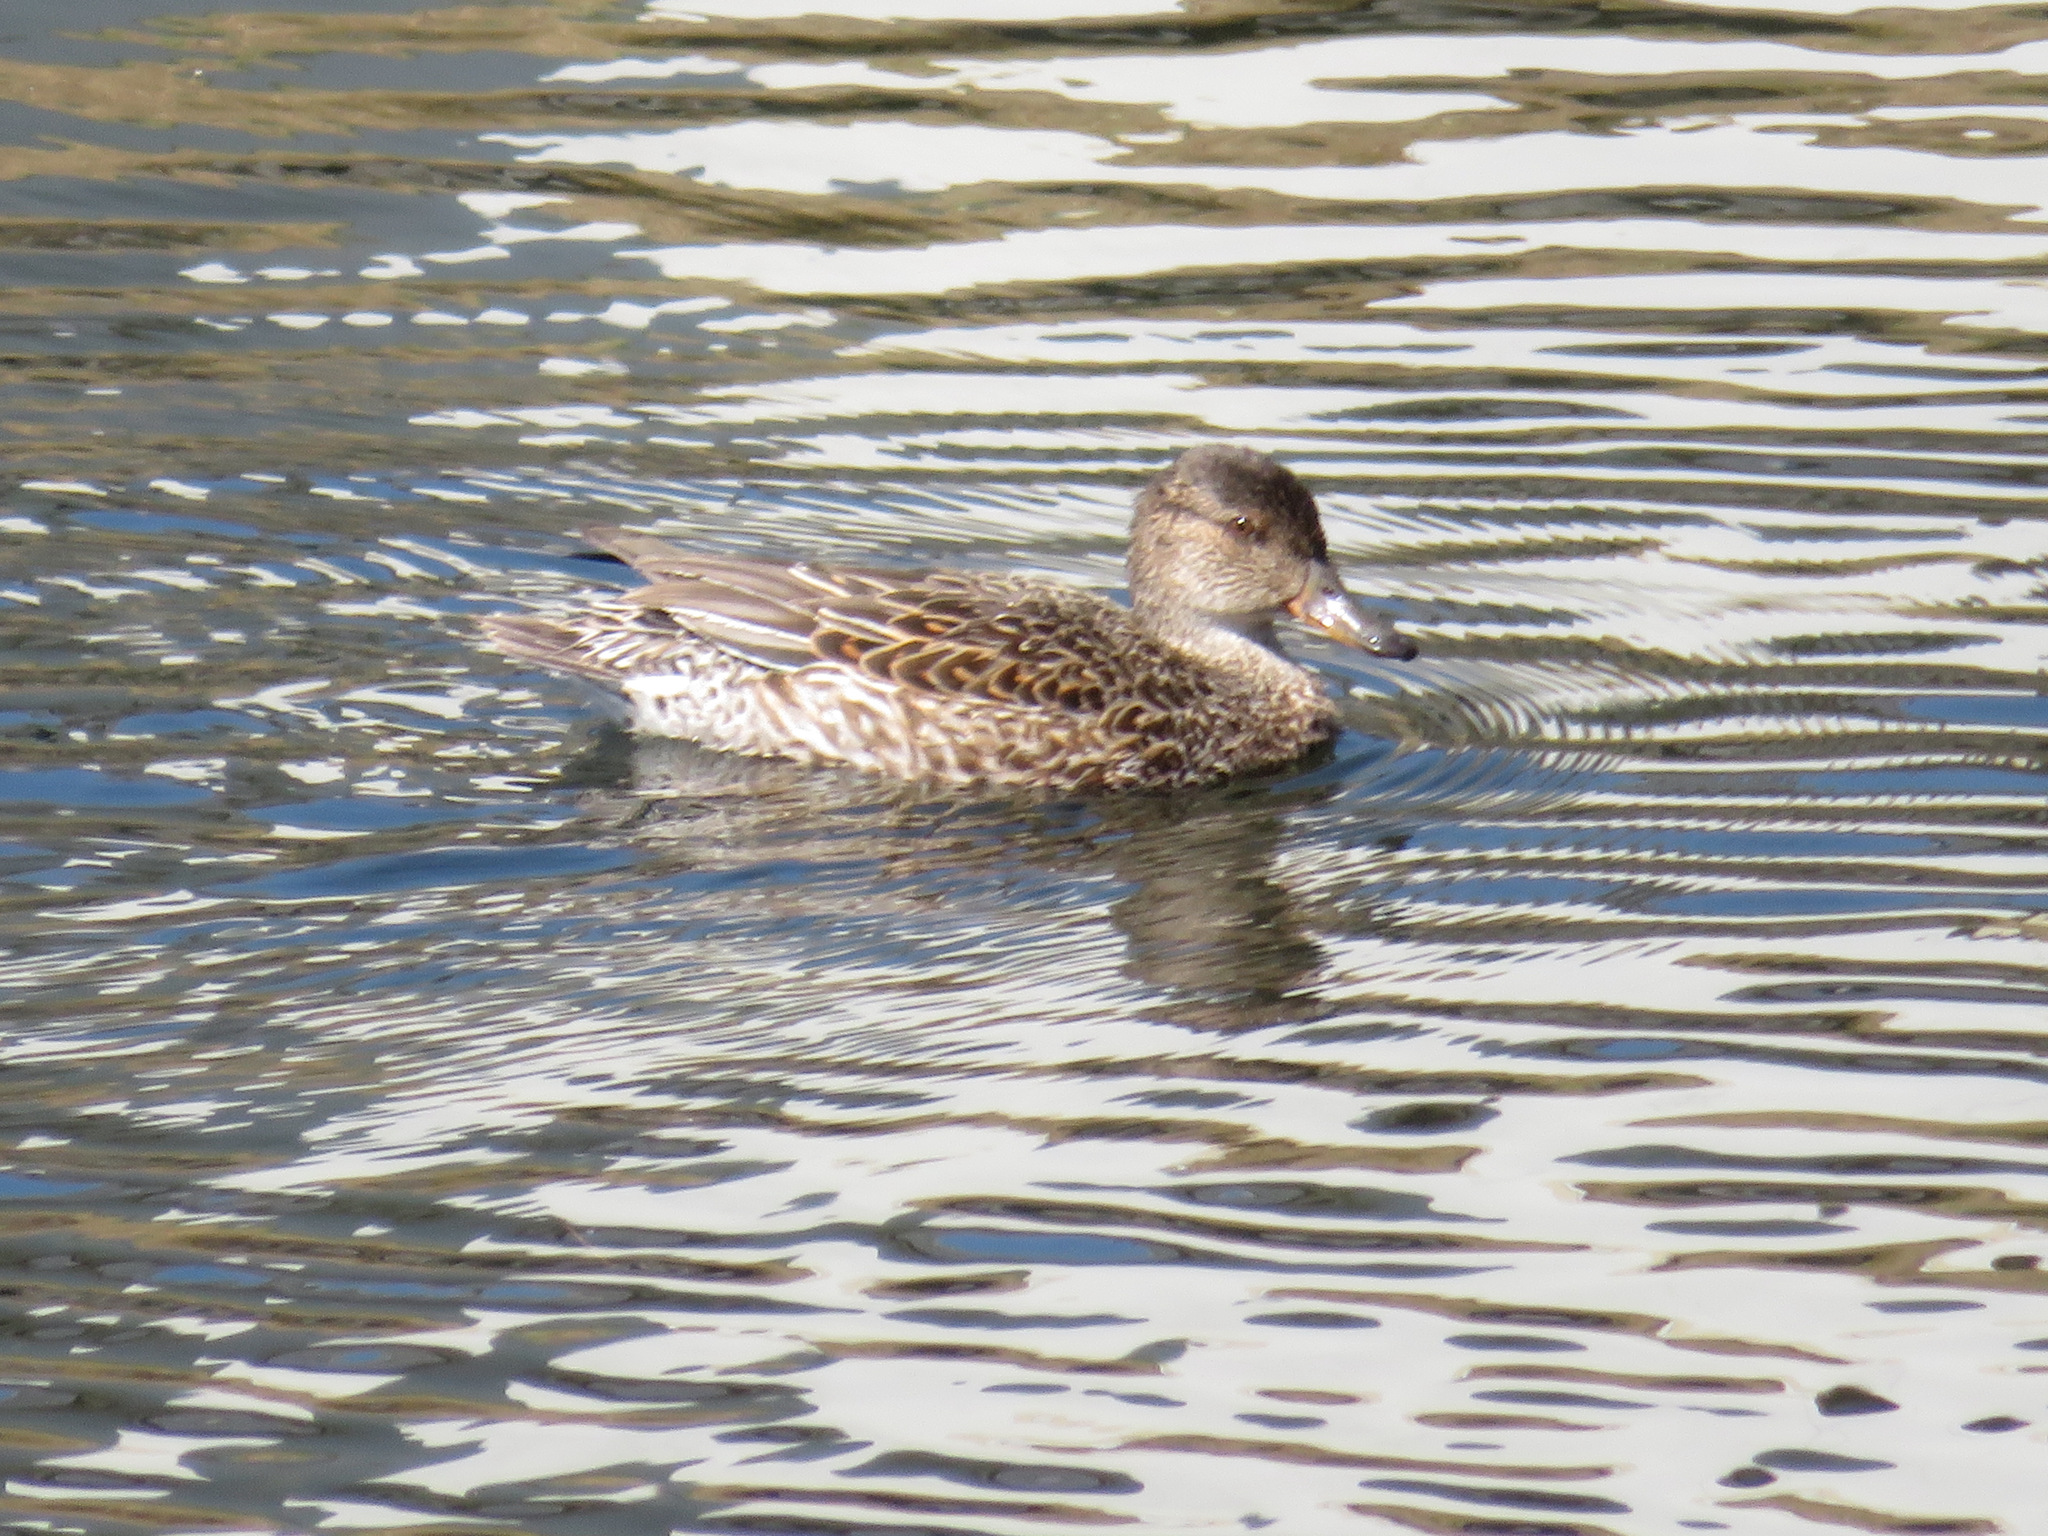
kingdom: Animalia
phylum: Chordata
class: Aves
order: Anseriformes
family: Anatidae
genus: Anas
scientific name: Anas crecca
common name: Eurasian teal
